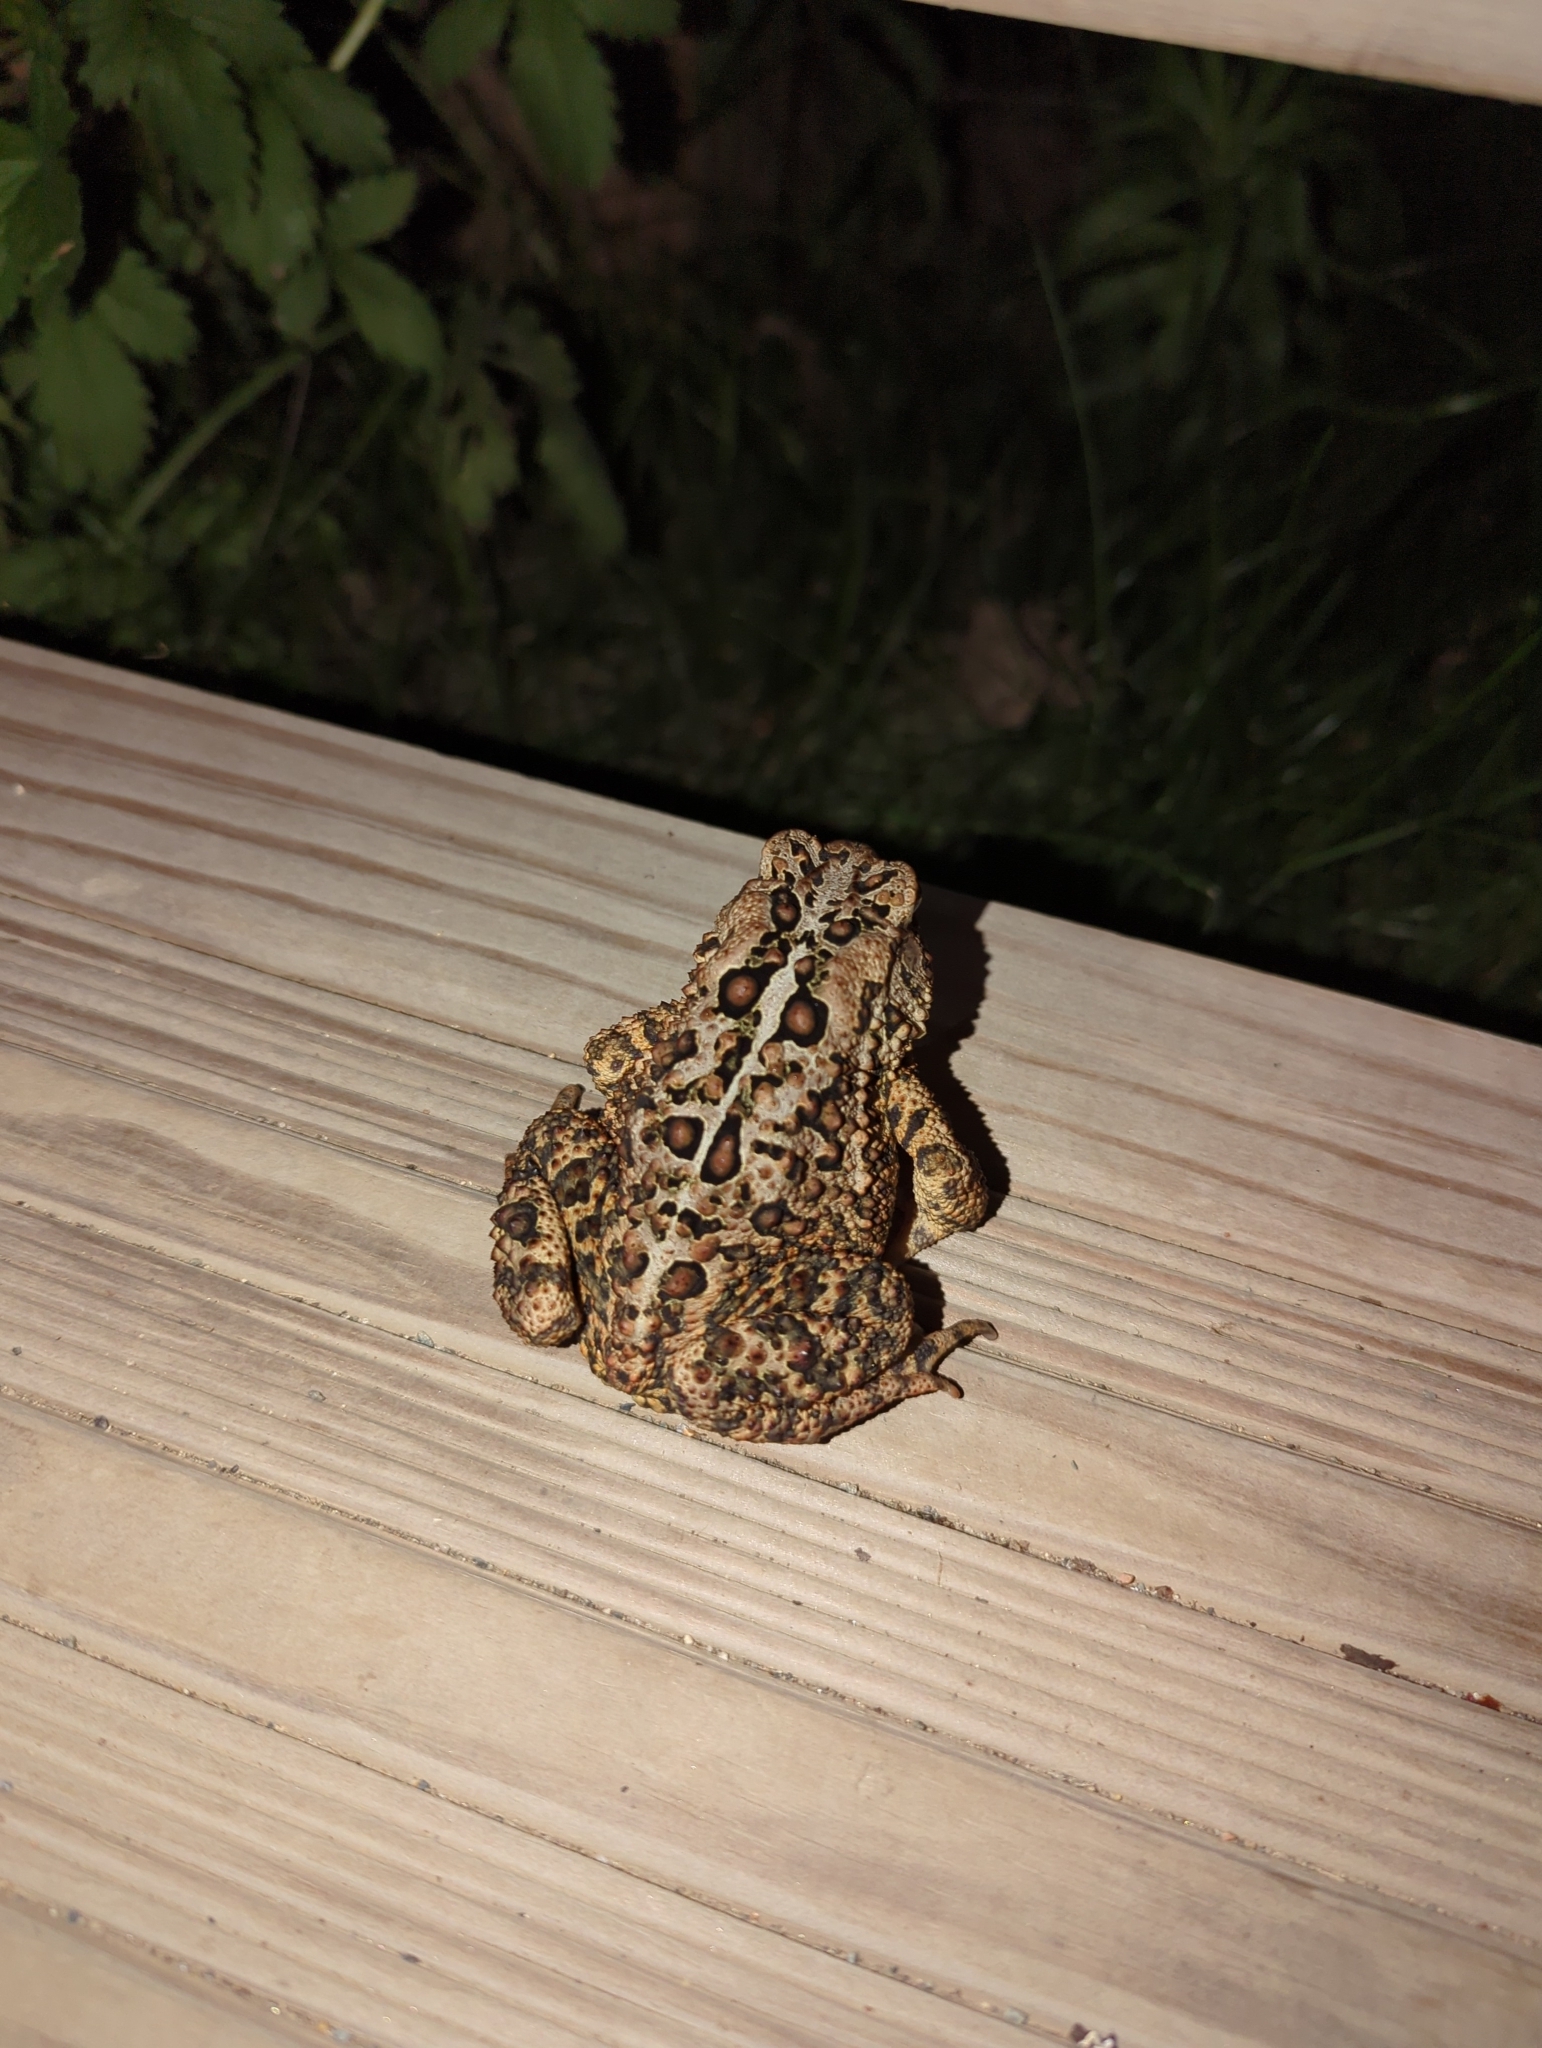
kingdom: Animalia
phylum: Chordata
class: Amphibia
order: Anura
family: Bufonidae
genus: Anaxyrus
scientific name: Anaxyrus americanus
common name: American toad
